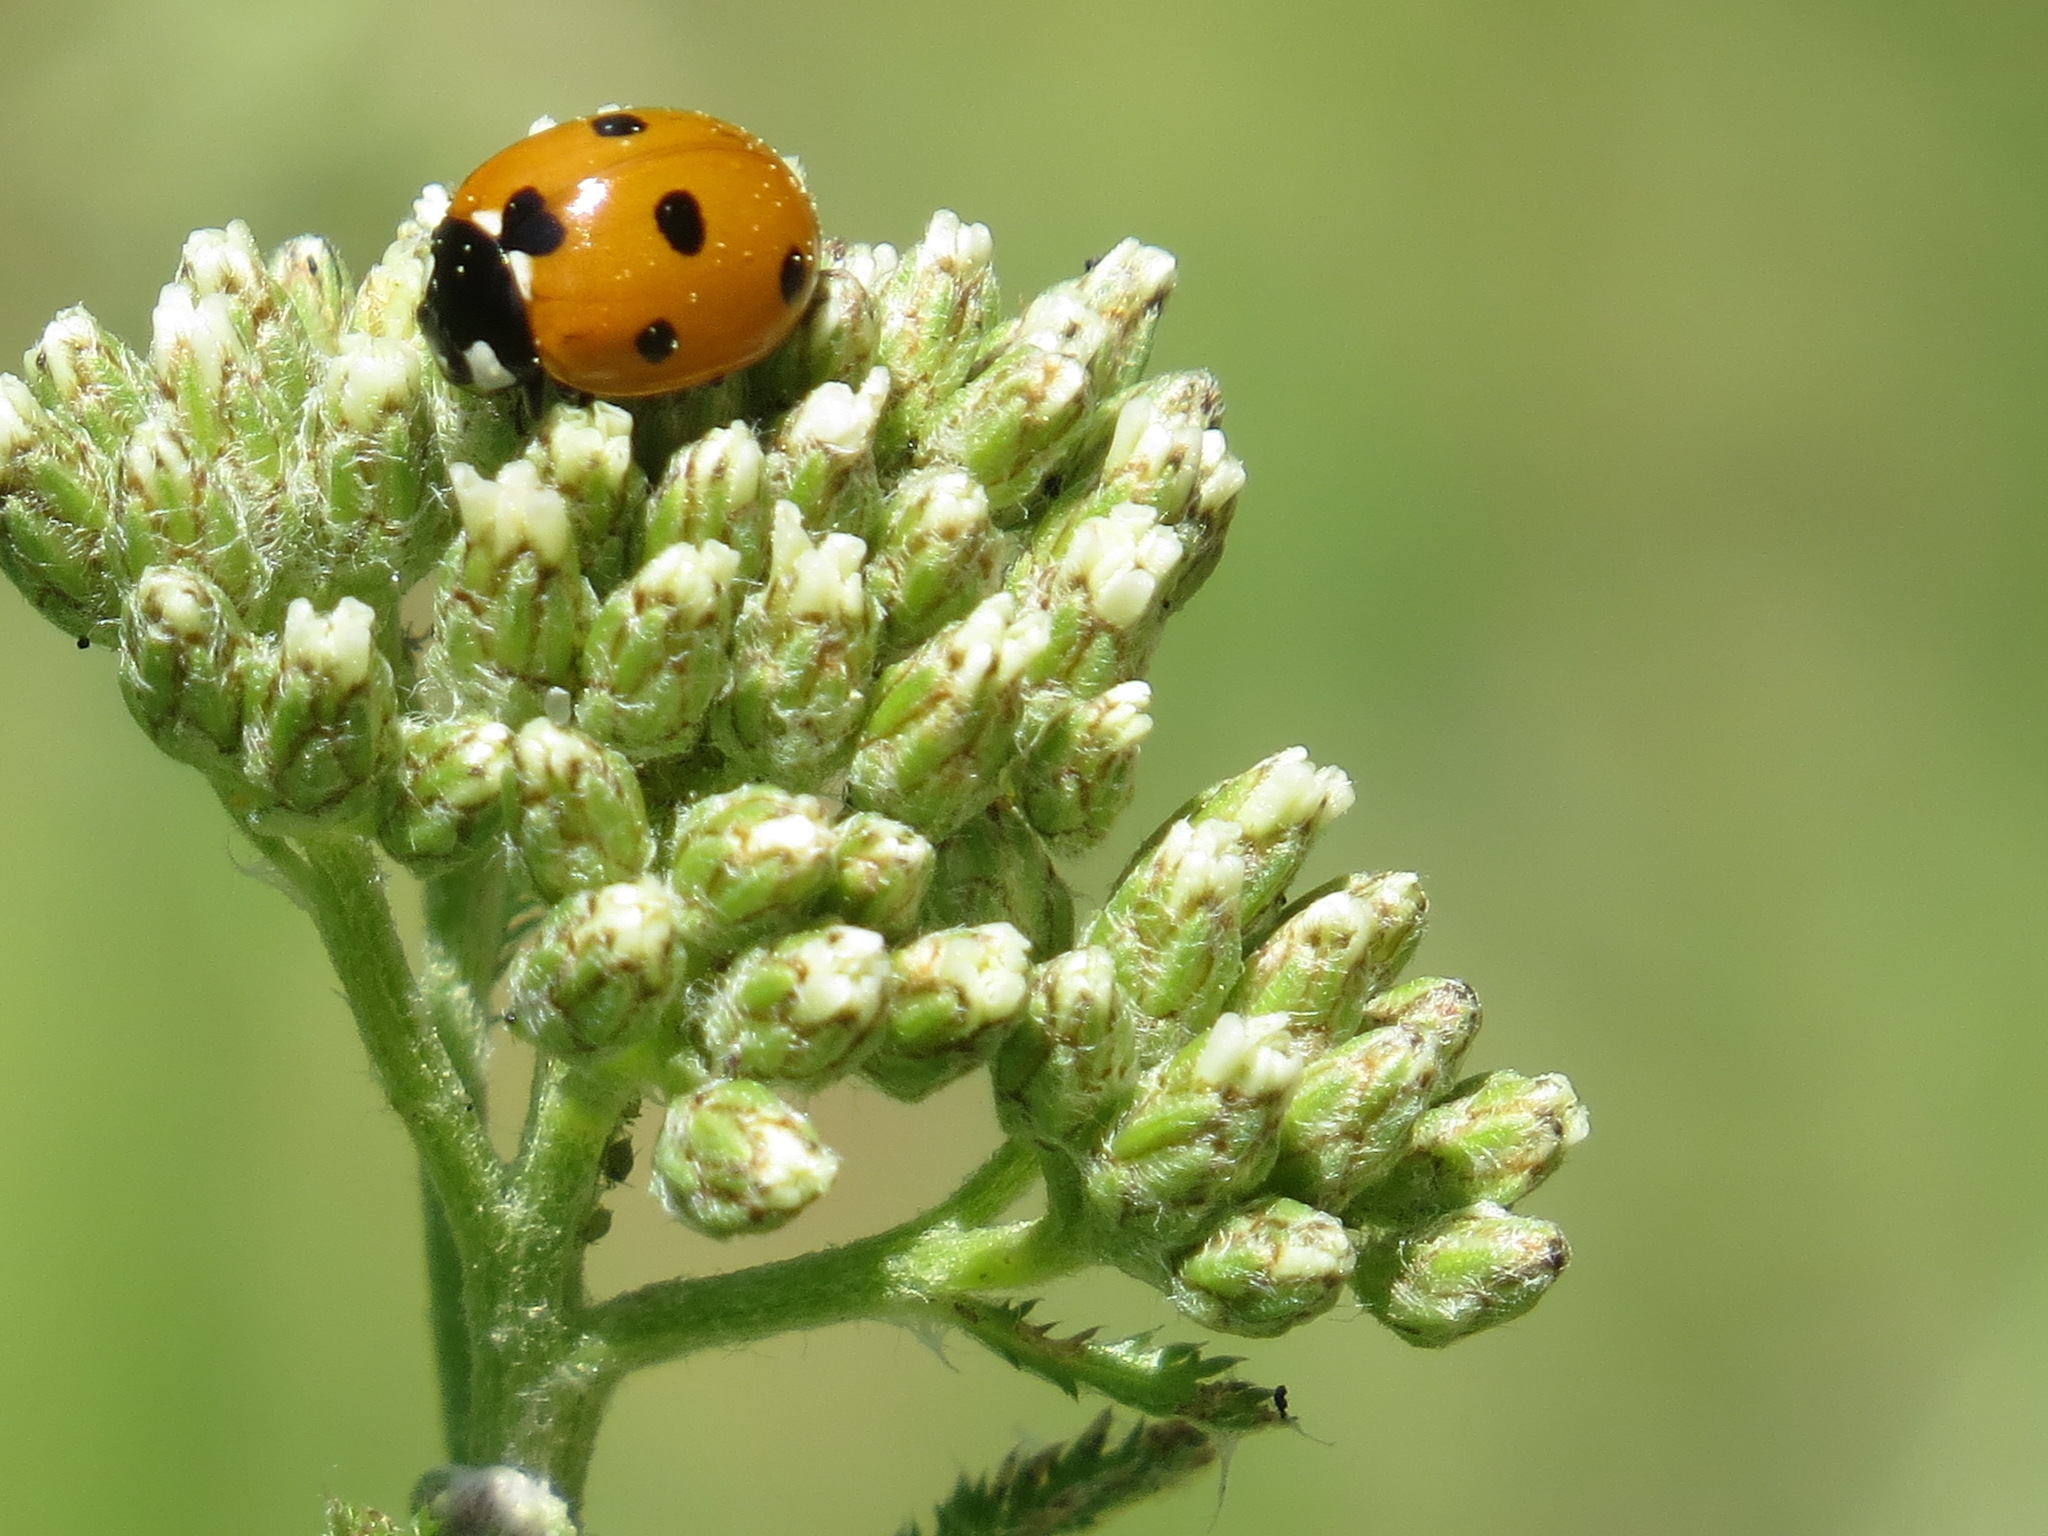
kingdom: Animalia
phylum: Arthropoda
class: Insecta
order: Coleoptera
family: Coccinellidae
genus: Coccinella
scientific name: Coccinella septempunctata
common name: Sevenspotted lady beetle
